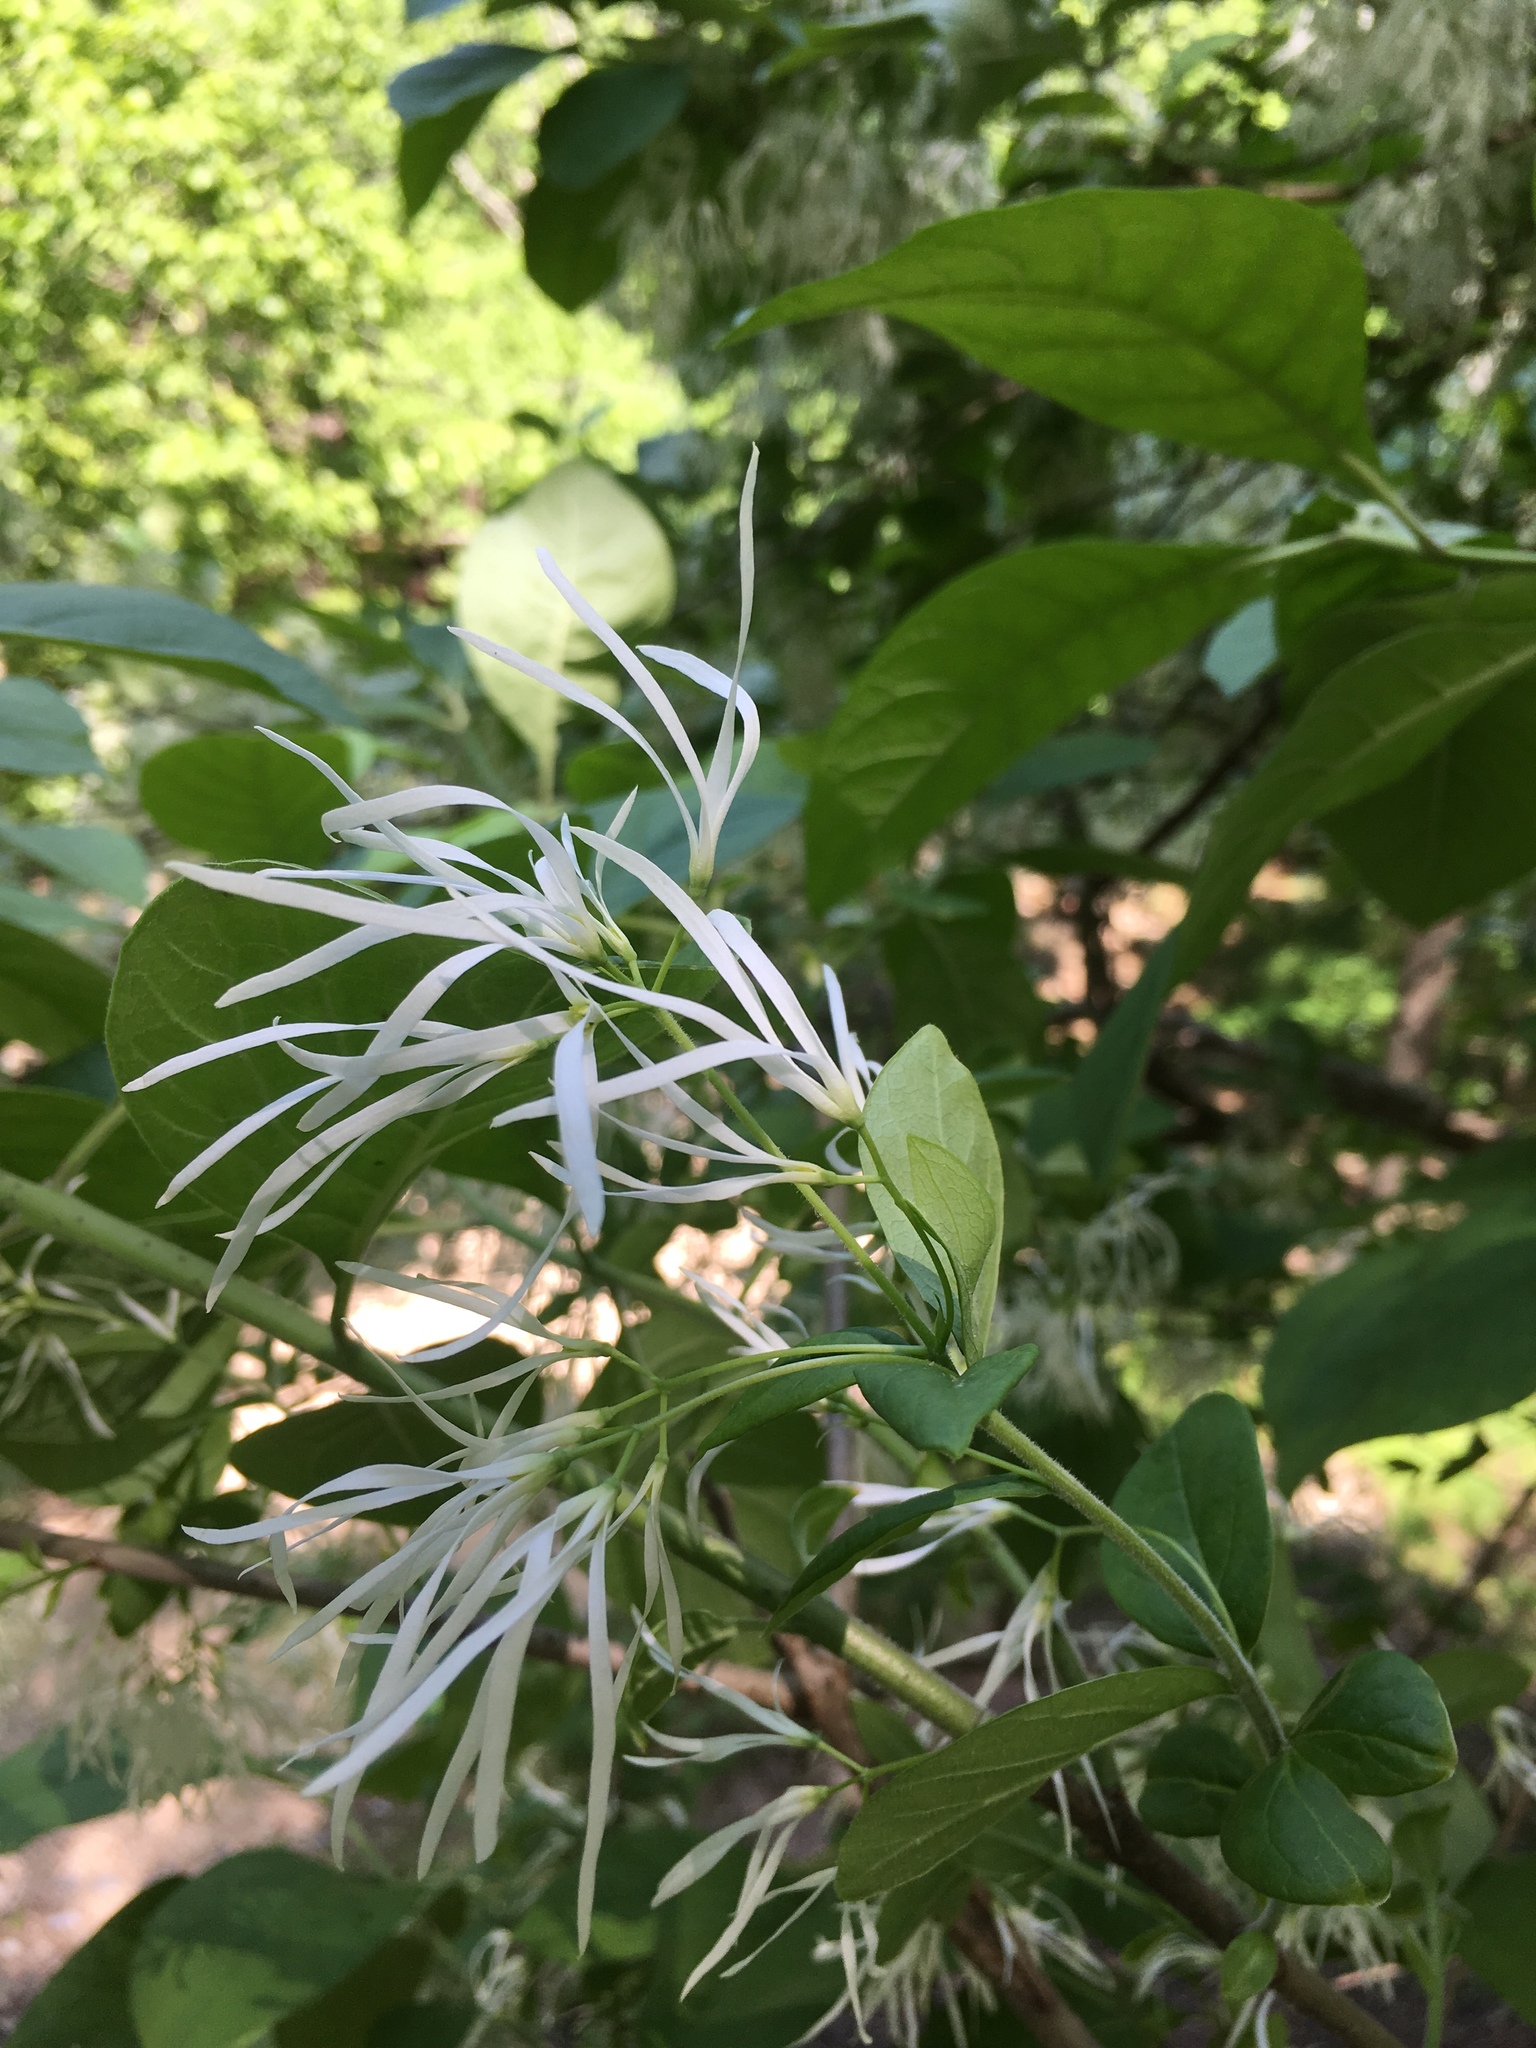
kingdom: Plantae
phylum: Tracheophyta
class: Magnoliopsida
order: Lamiales
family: Oleaceae
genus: Chionanthus
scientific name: Chionanthus virginicus
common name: American fringetree
